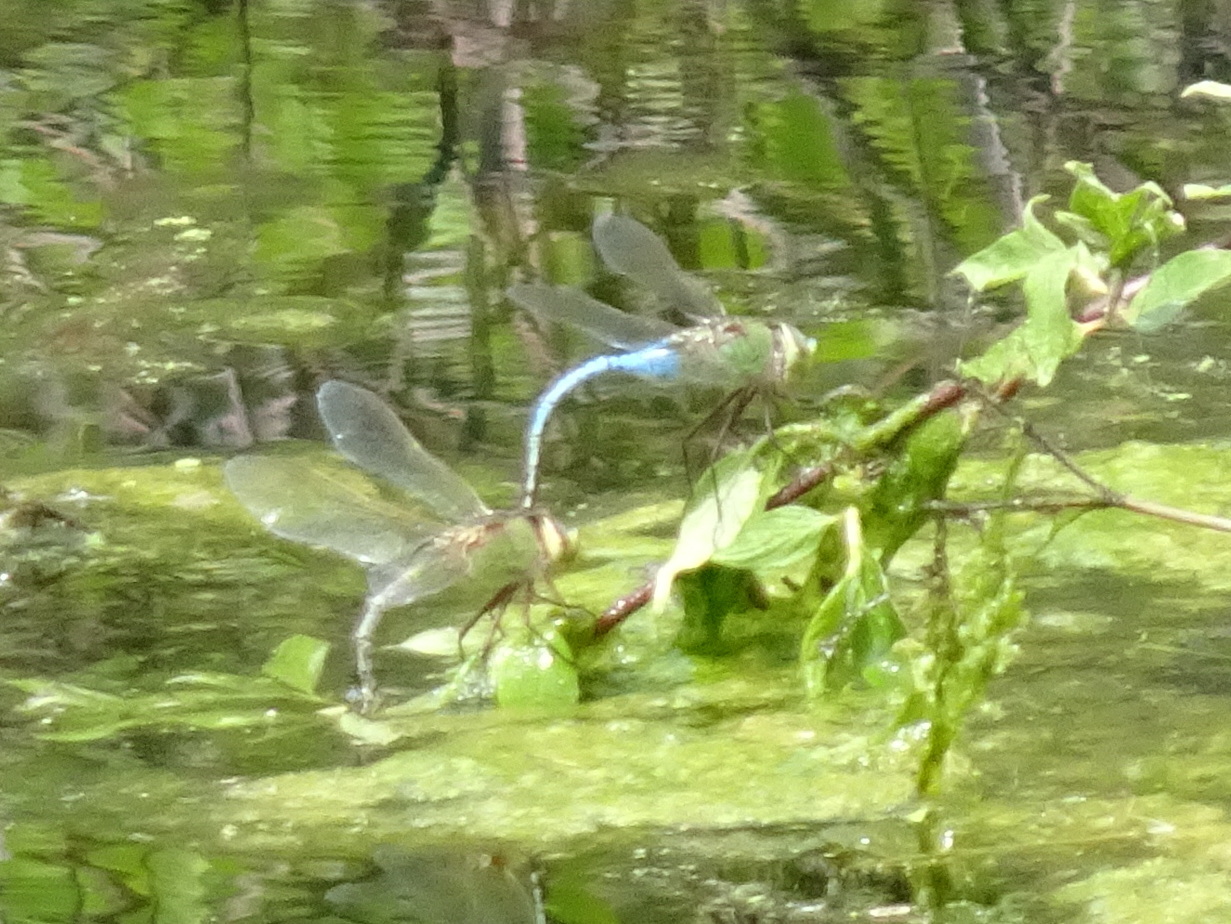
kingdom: Animalia
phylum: Arthropoda
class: Insecta
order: Odonata
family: Aeshnidae
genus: Anax
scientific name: Anax junius
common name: Common green darner
